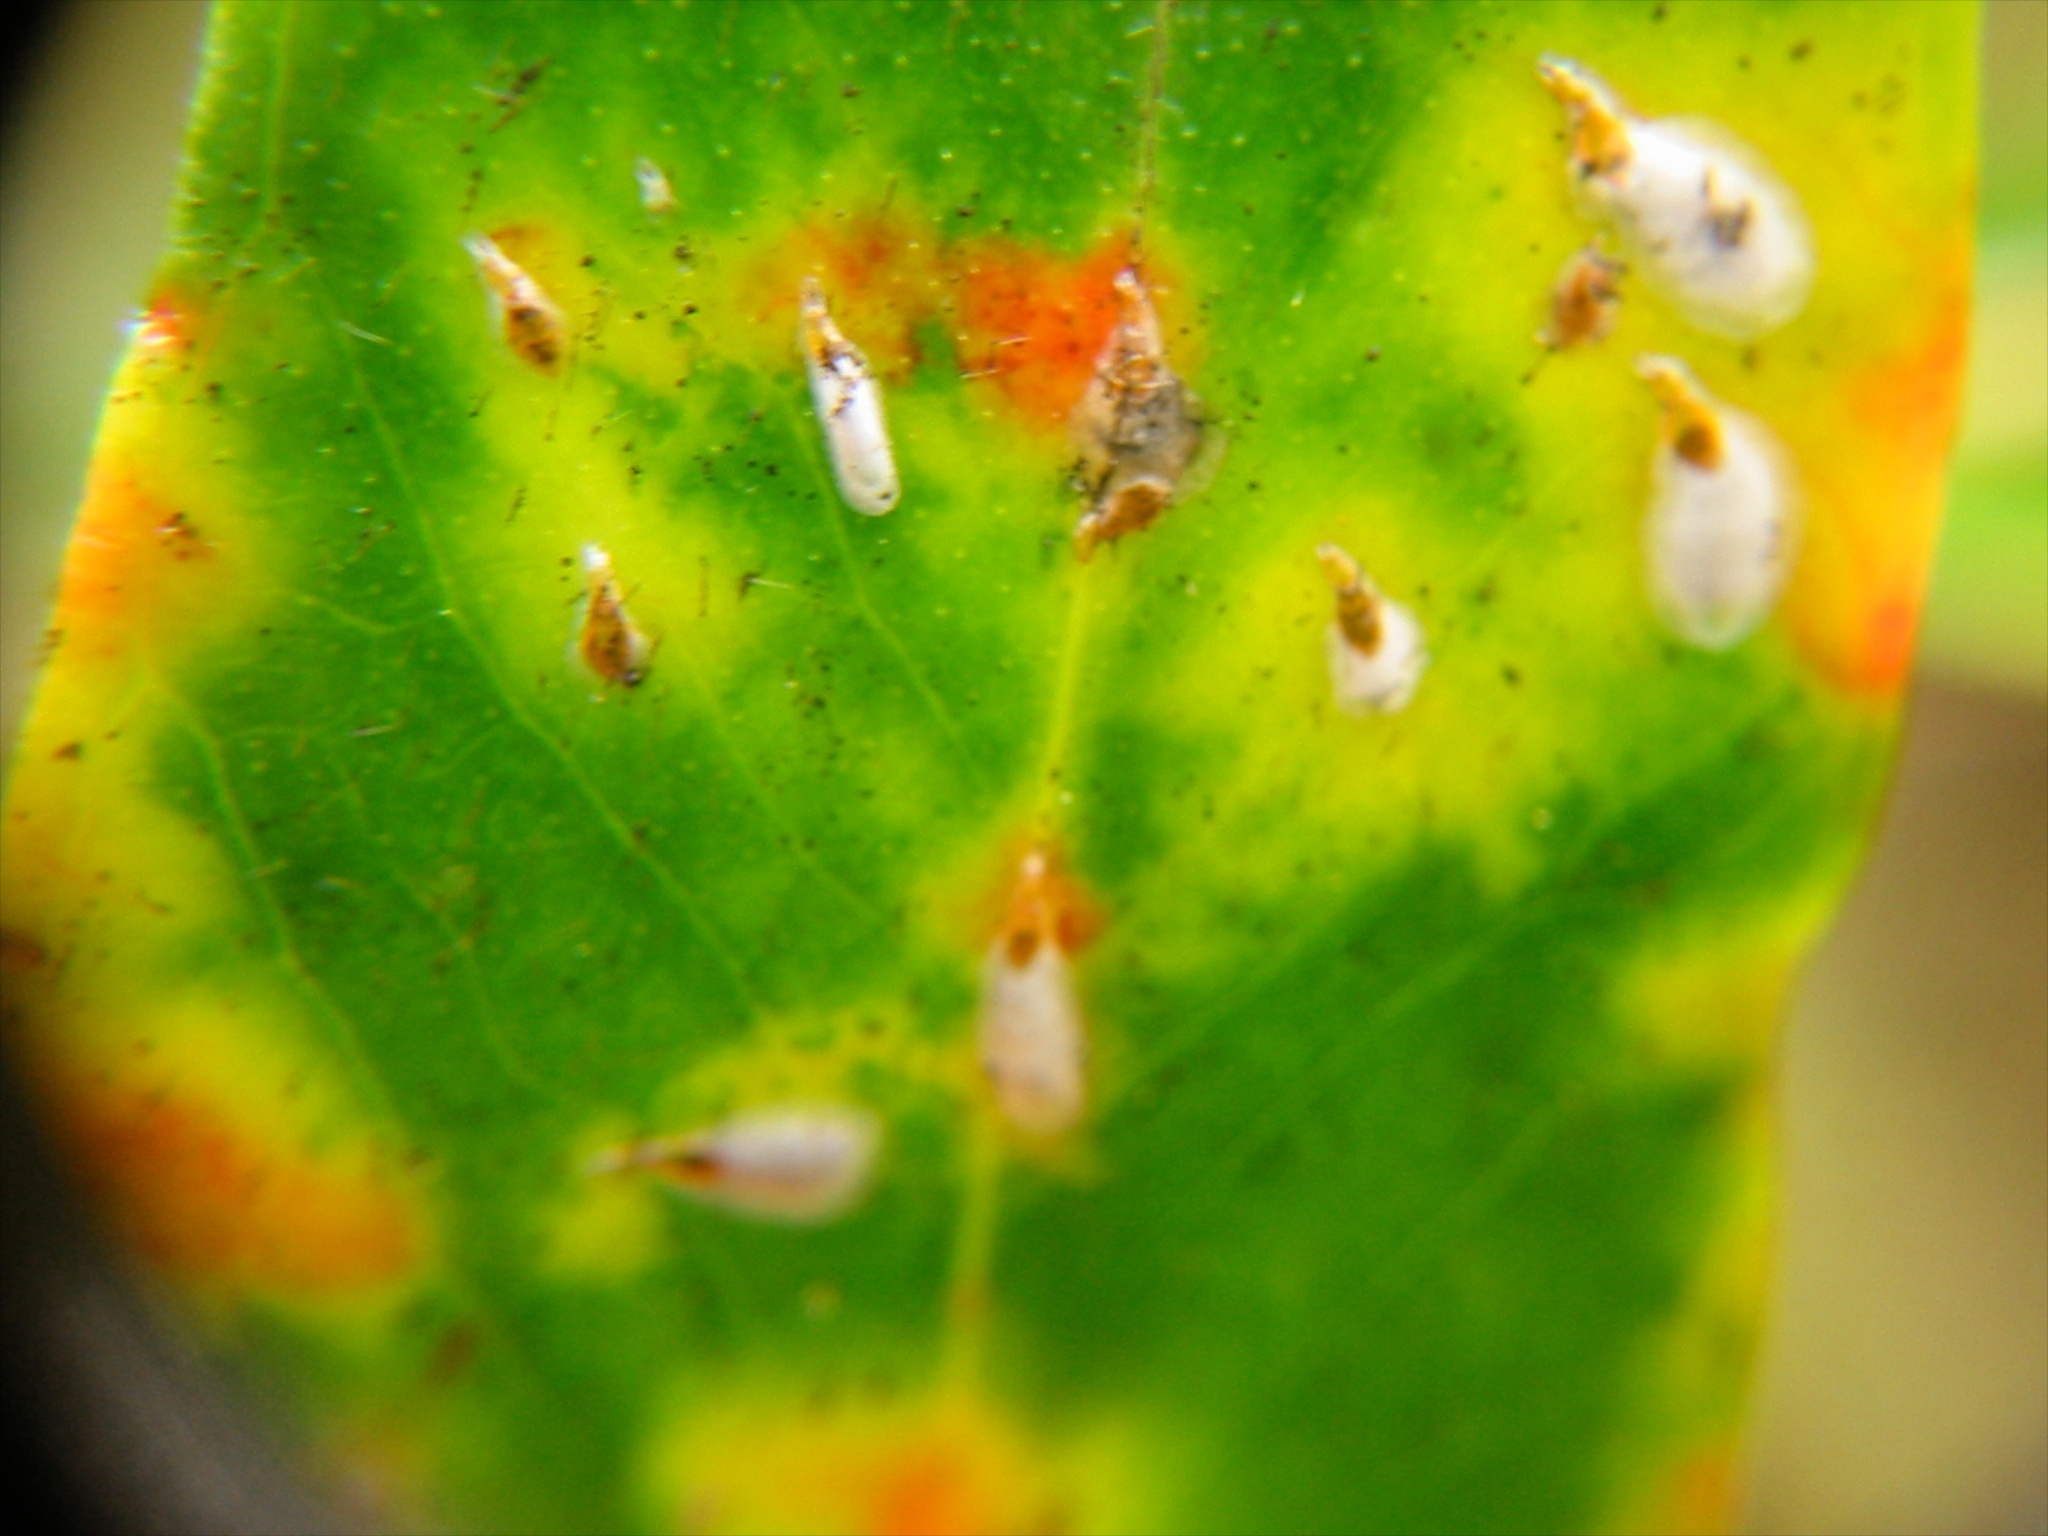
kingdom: Animalia
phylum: Arthropoda
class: Insecta
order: Hemiptera
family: Diaspididae
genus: Anoplaspis
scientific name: Anoplaspis metrosideri
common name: White rata-scale
